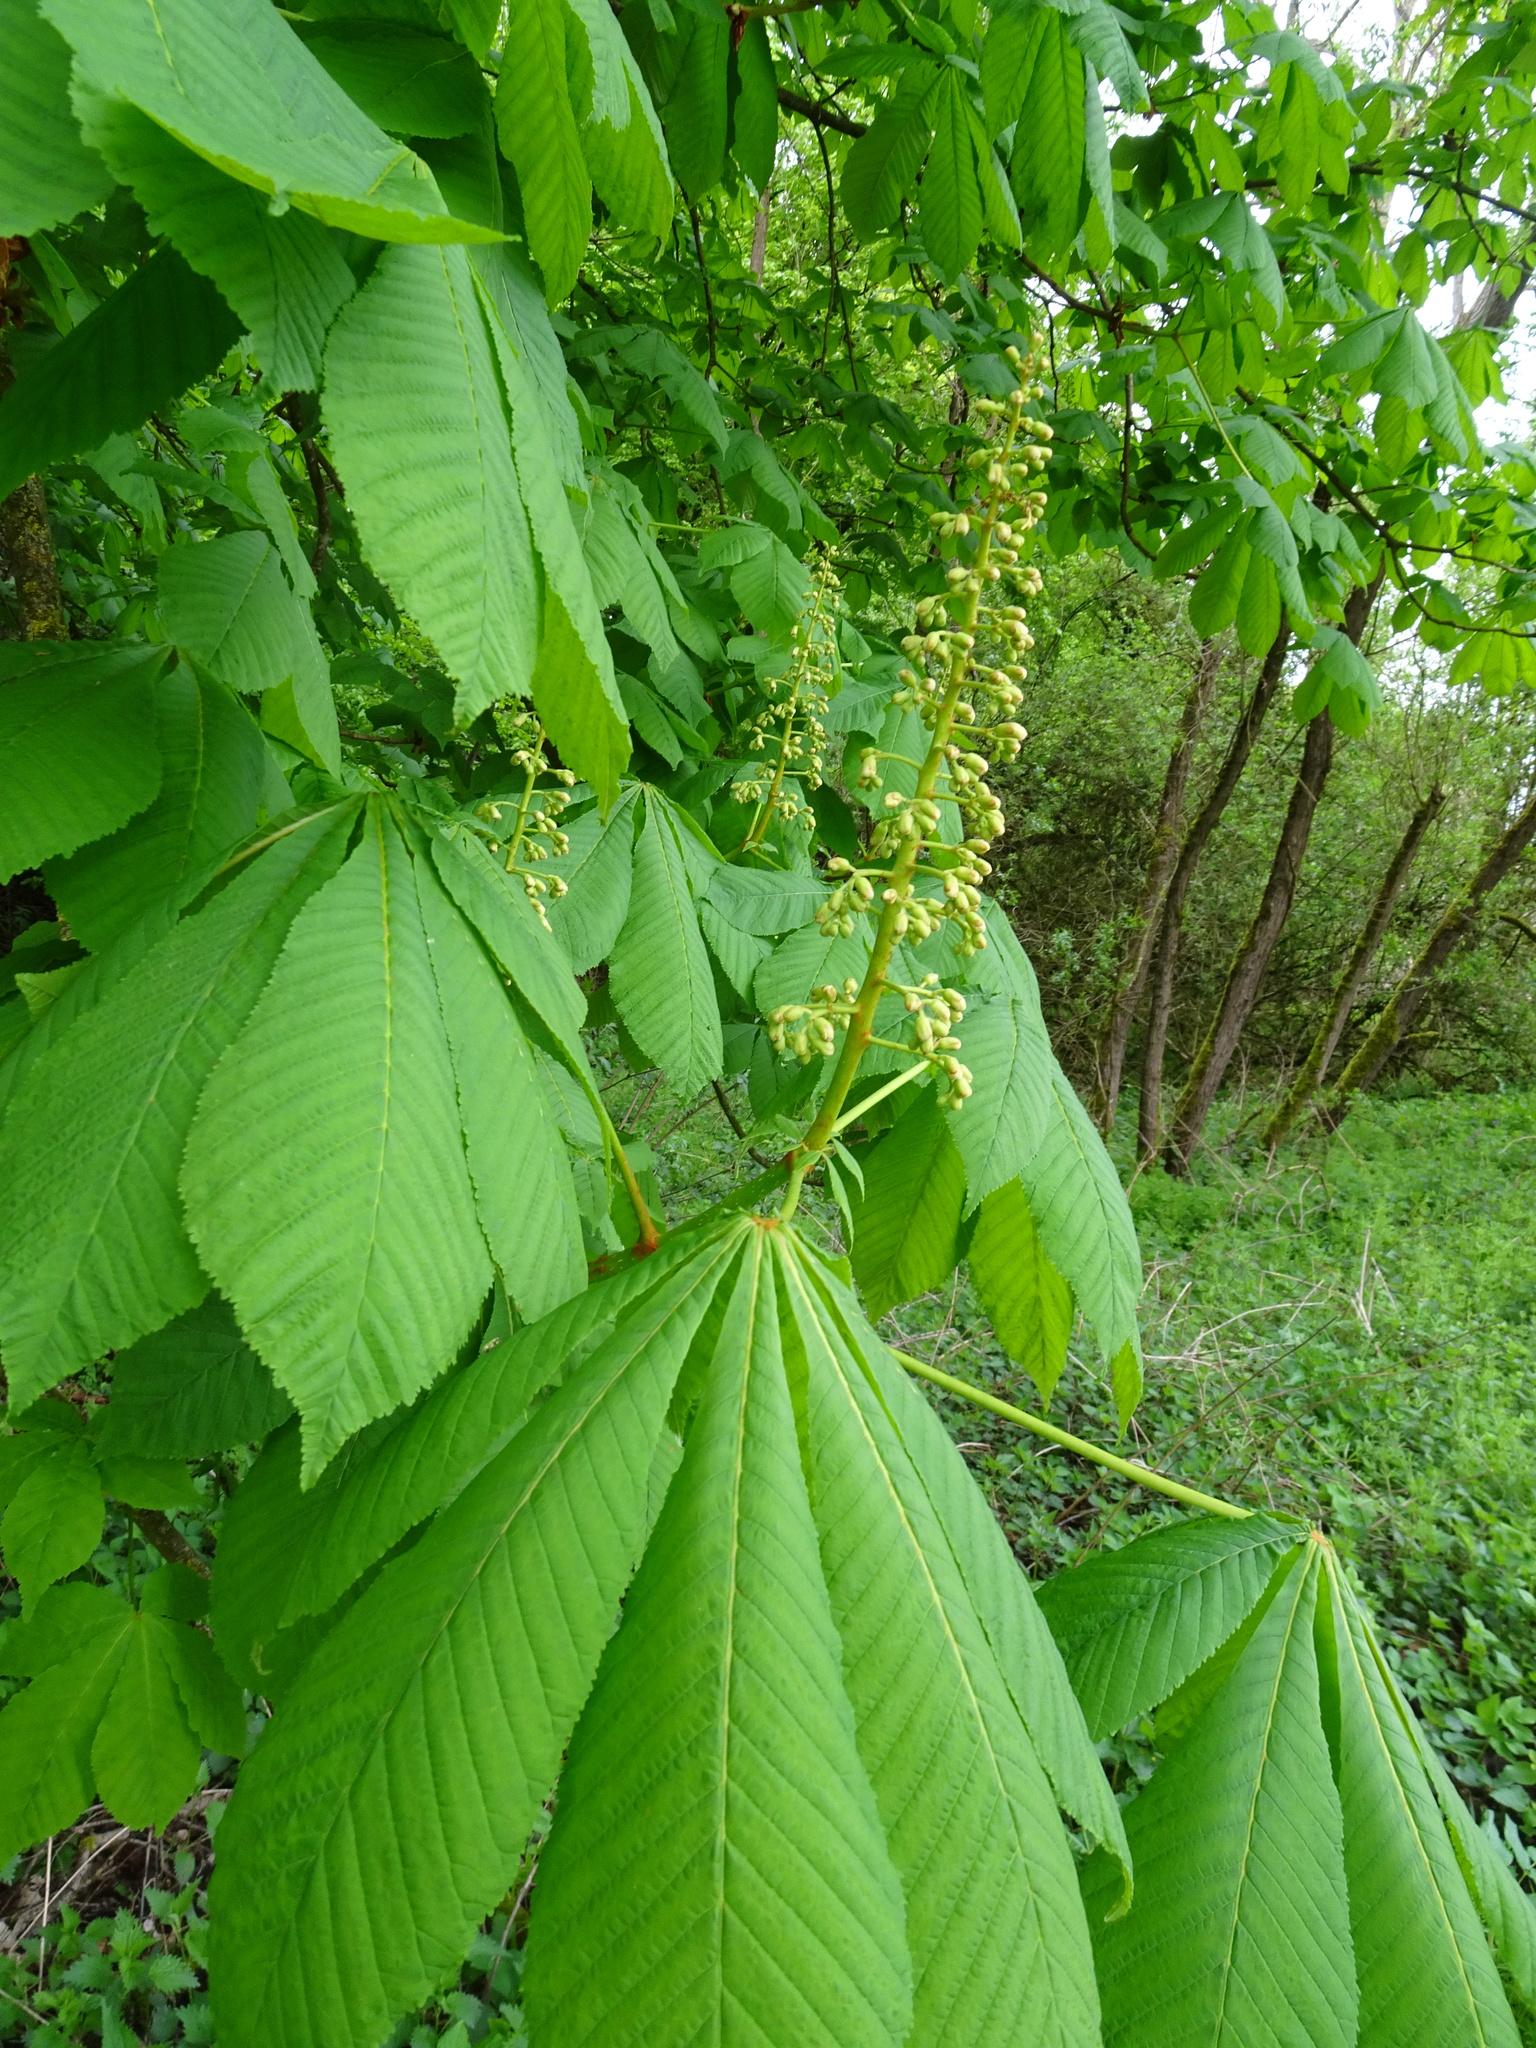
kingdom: Plantae
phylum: Tracheophyta
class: Magnoliopsida
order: Sapindales
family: Sapindaceae
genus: Aesculus
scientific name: Aesculus hippocastanum
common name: Horse-chestnut
